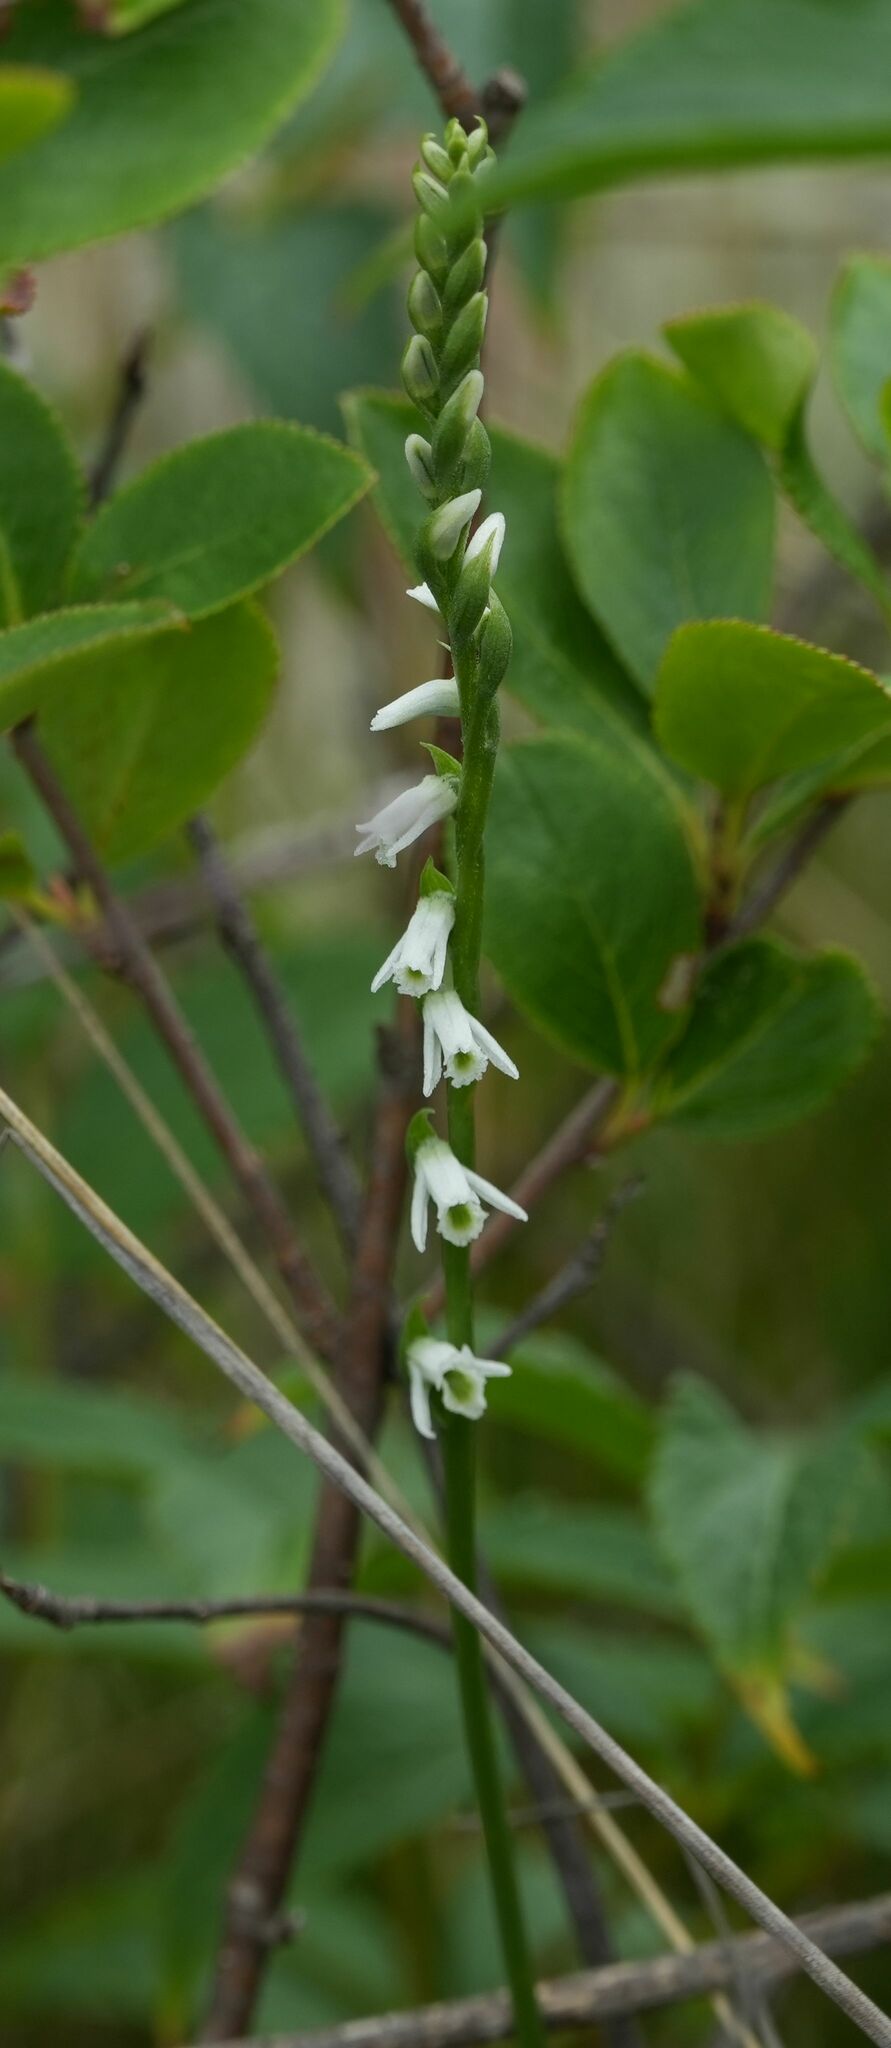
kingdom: Plantae
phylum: Tracheophyta
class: Liliopsida
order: Asparagales
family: Orchidaceae
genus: Spiranthes
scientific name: Spiranthes lacera
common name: Northern slender ladies'-tresses
